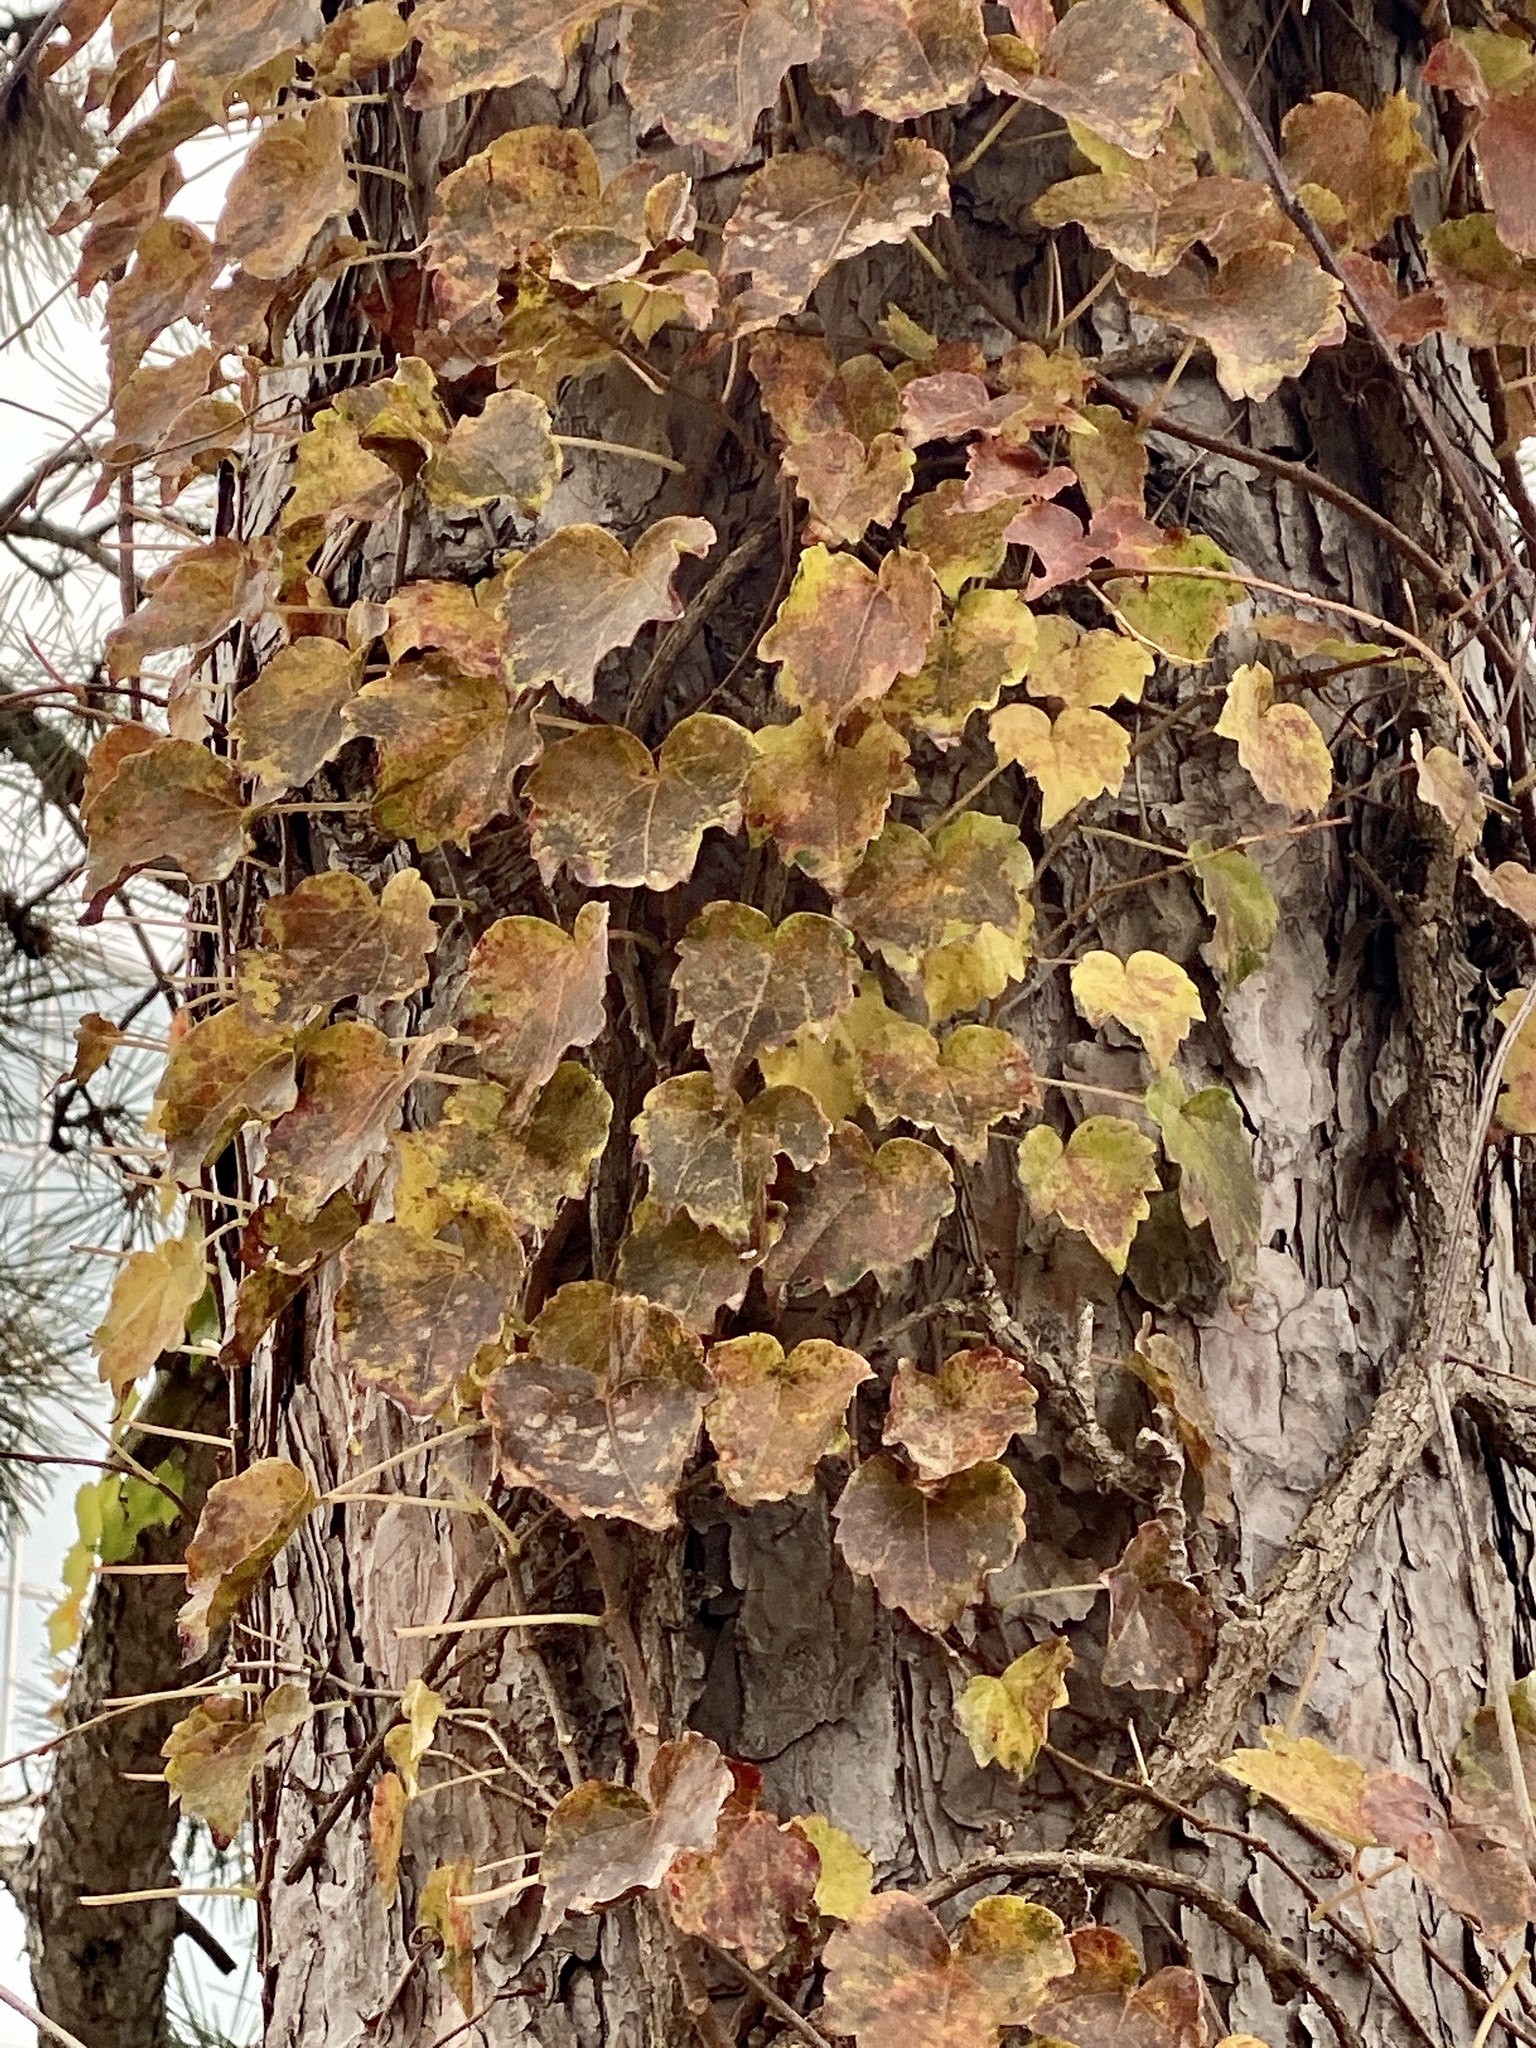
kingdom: Plantae
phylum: Tracheophyta
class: Magnoliopsida
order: Vitales
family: Vitaceae
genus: Parthenocissus
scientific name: Parthenocissus tricuspidata
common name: Boston ivy
